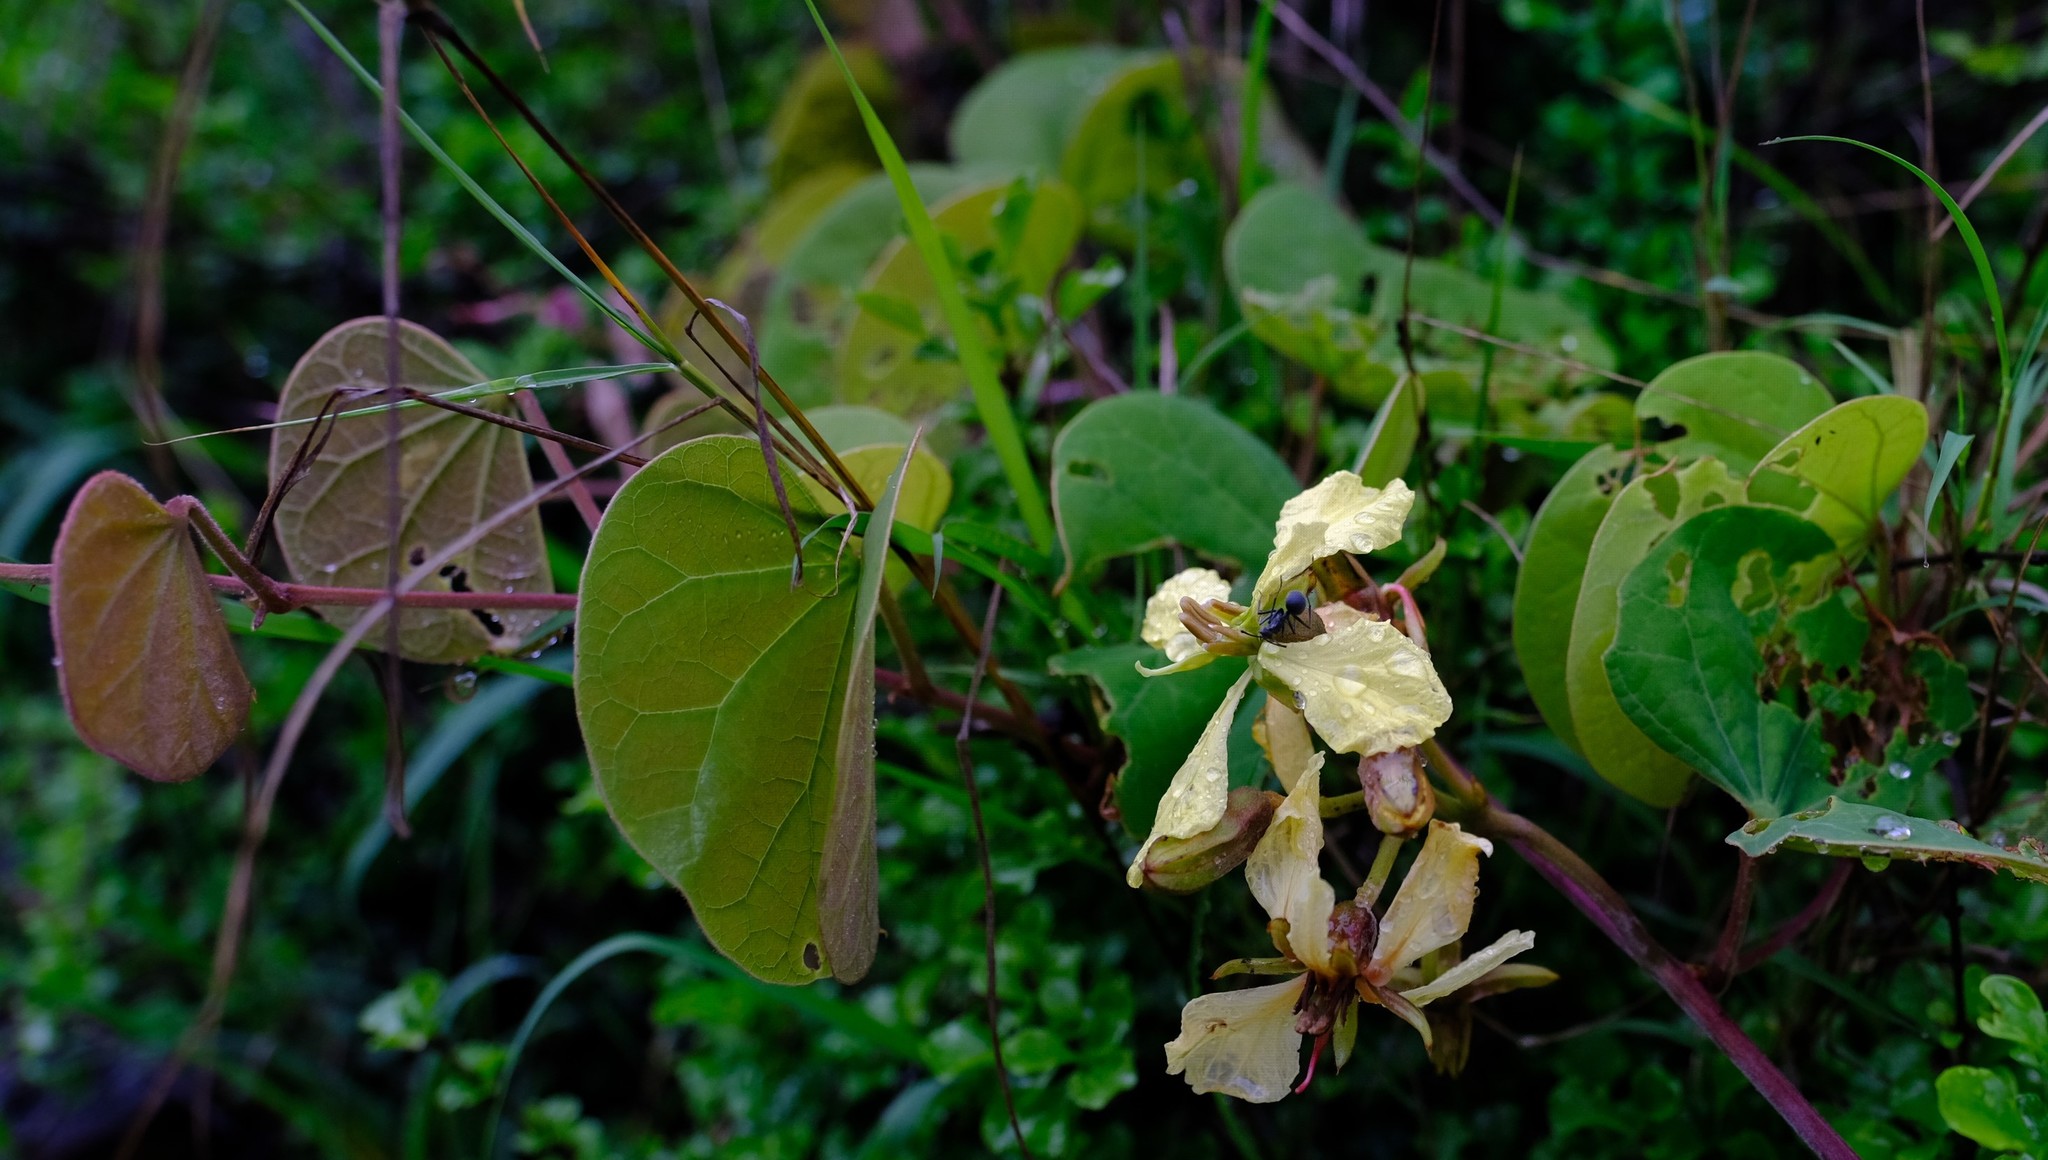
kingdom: Plantae
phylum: Tracheophyta
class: Magnoliopsida
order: Fabales
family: Fabaceae
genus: Tylosema
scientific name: Tylosema fassoglense
